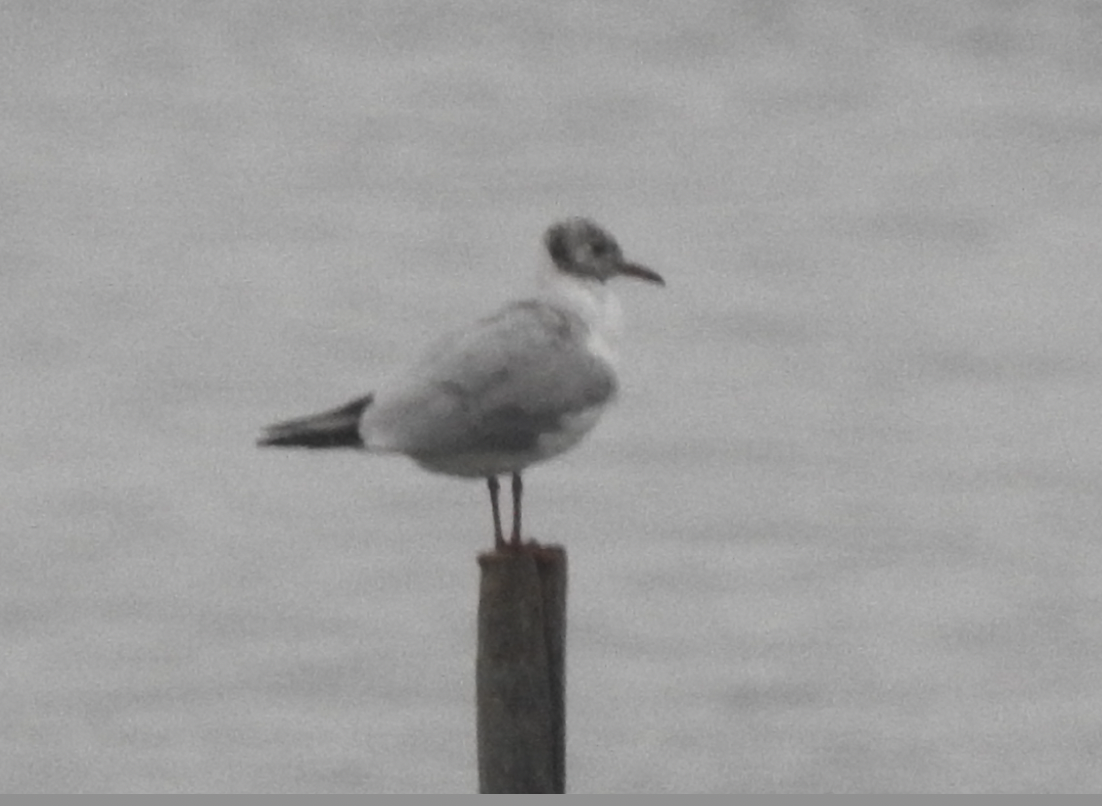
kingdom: Animalia
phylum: Chordata
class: Aves
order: Charadriiformes
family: Laridae
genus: Chroicocephalus
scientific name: Chroicocephalus ridibundus
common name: Black-headed gull
